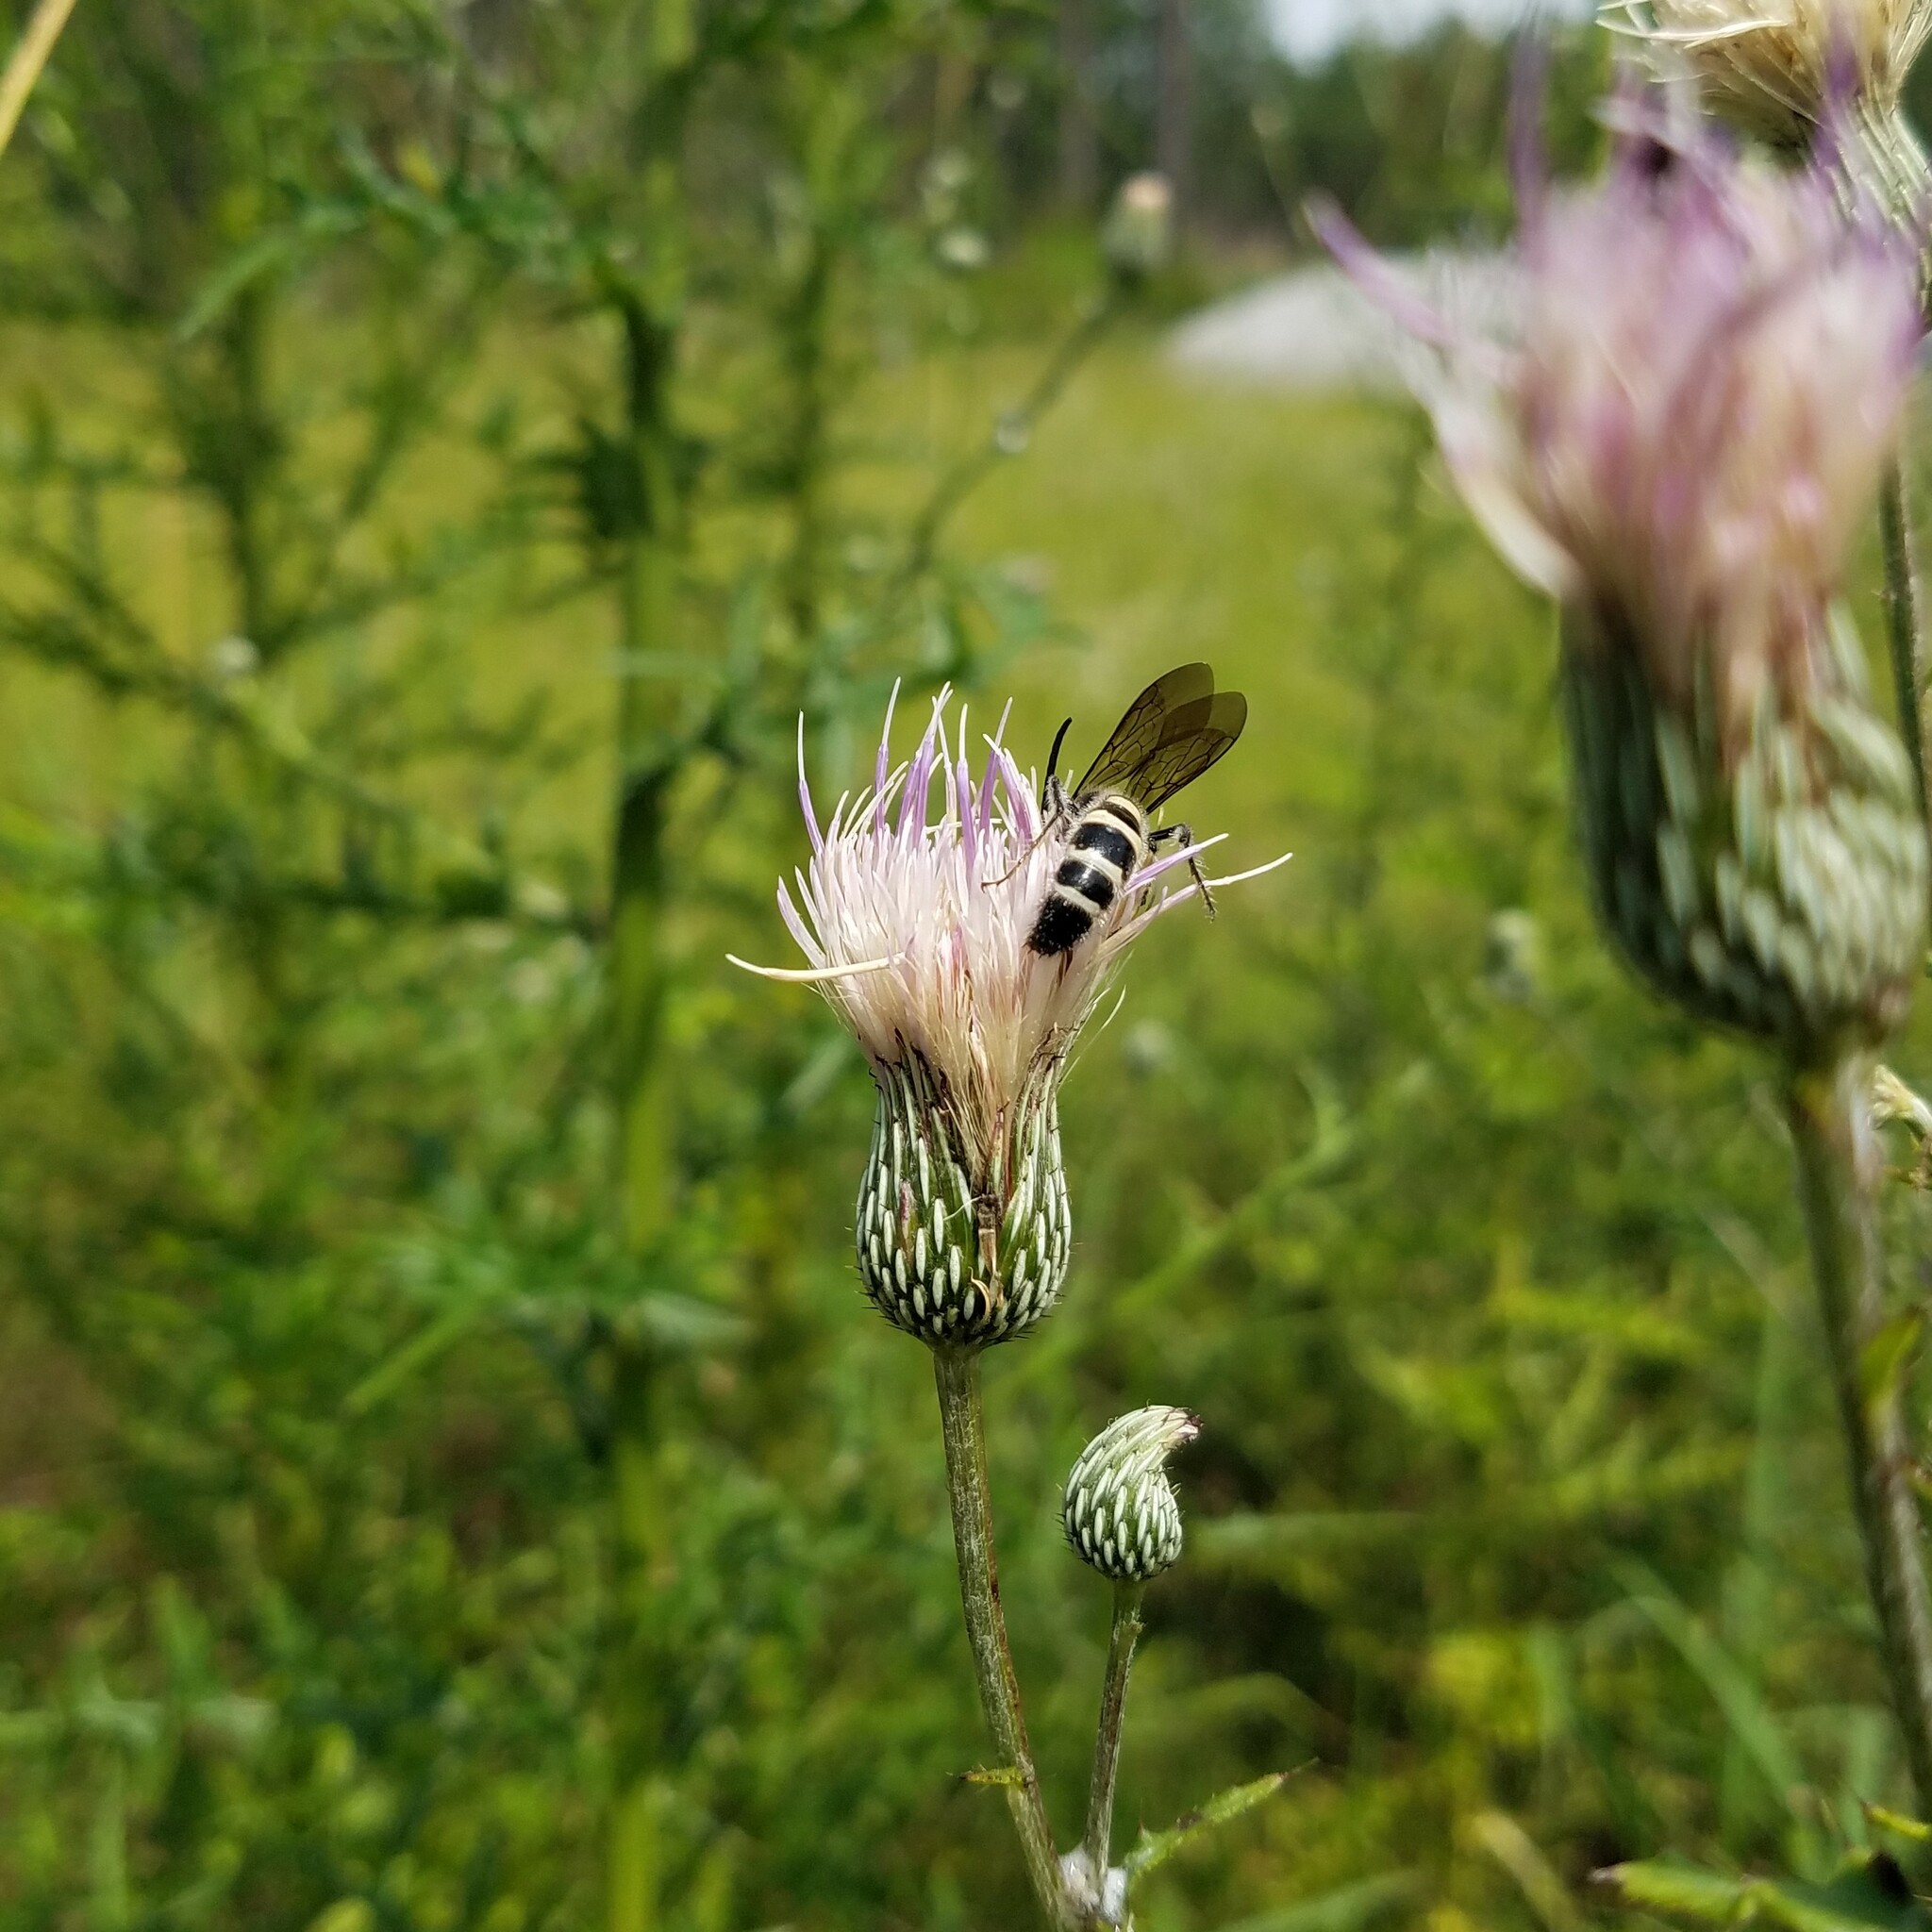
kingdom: Animalia
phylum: Arthropoda
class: Insecta
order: Hymenoptera
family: Scoliidae
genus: Dielis
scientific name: Dielis
